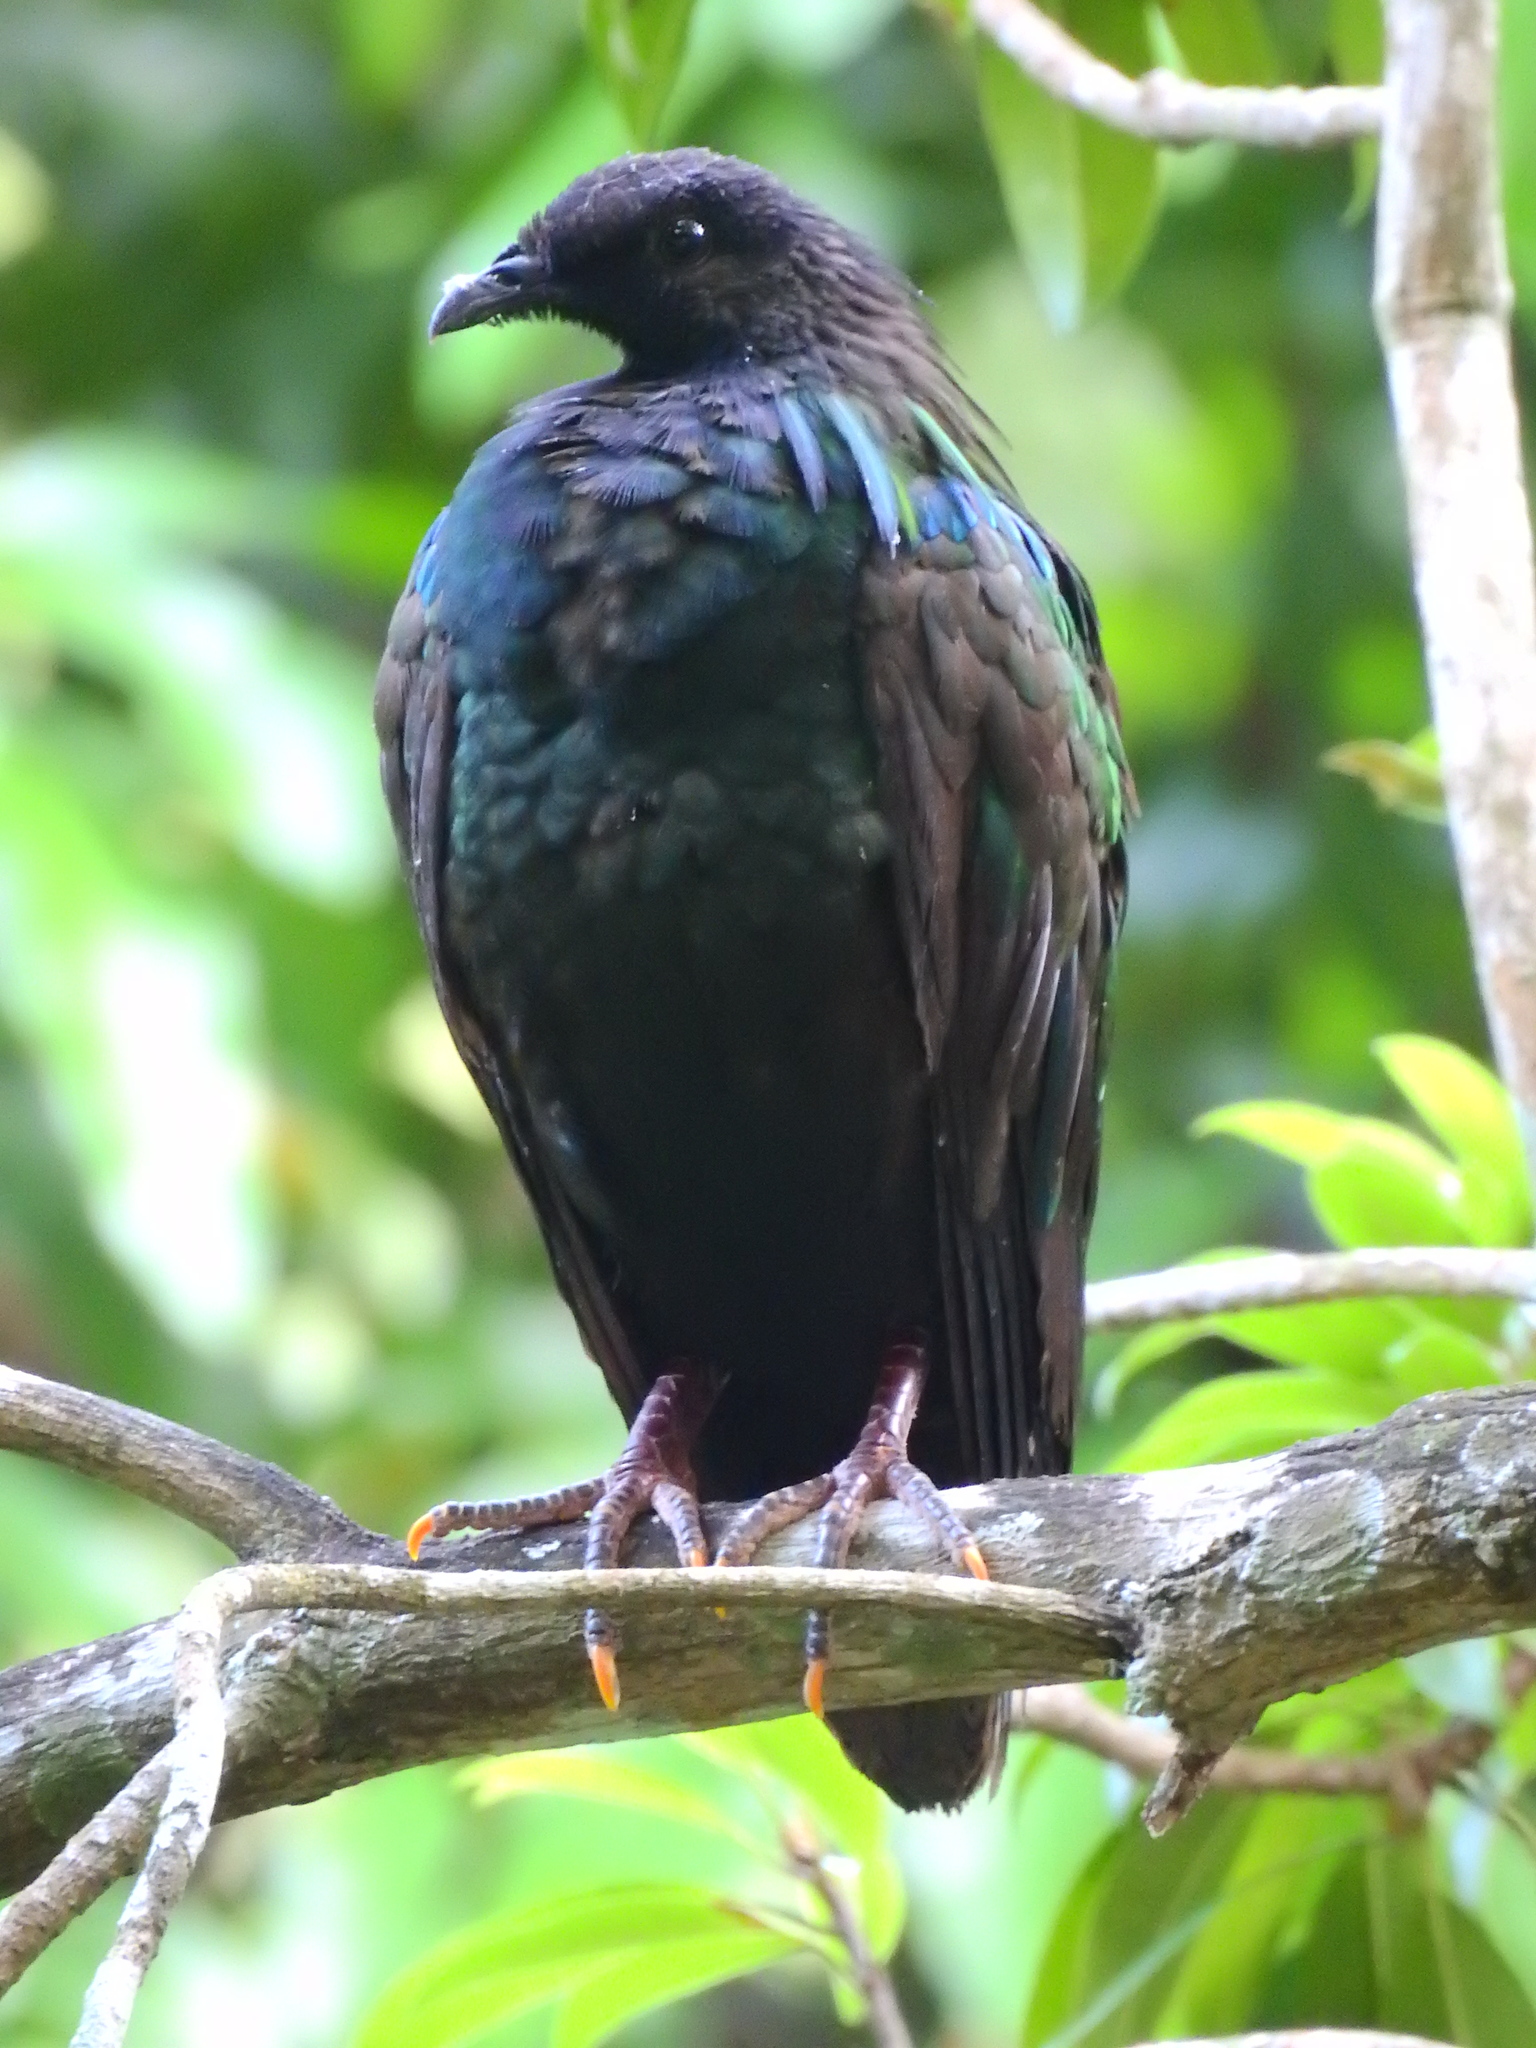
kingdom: Animalia
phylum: Chordata
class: Aves
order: Columbiformes
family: Columbidae
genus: Caloenas
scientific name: Caloenas nicobarica
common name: Nicobar pigeon
